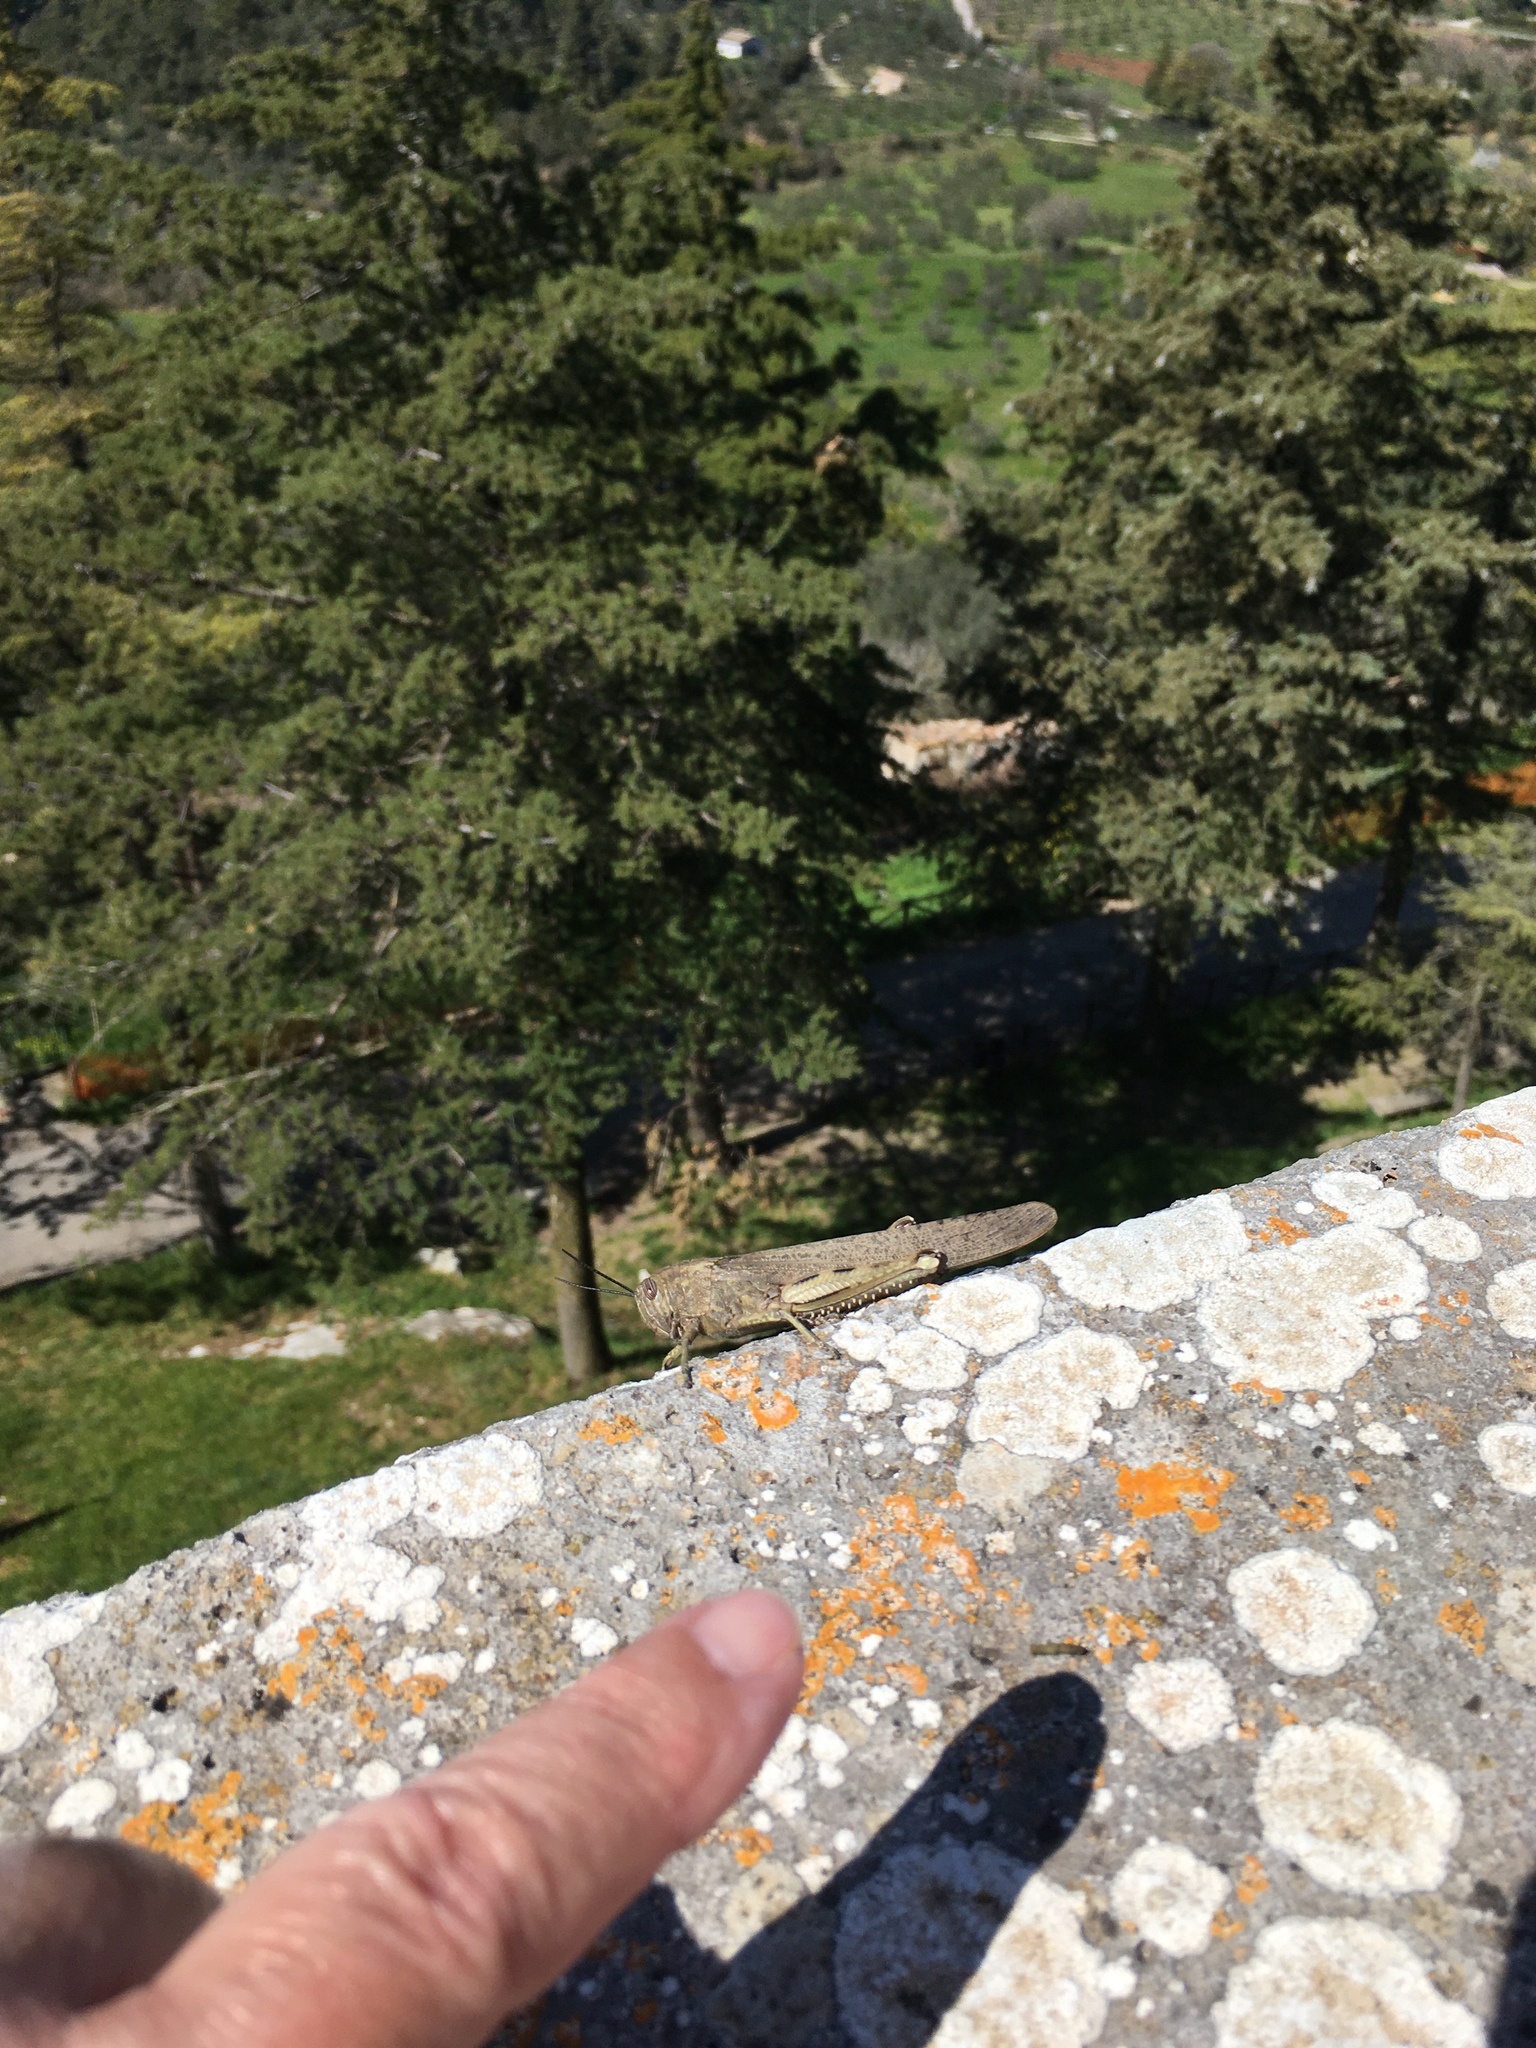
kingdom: Animalia
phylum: Arthropoda
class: Insecta
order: Orthoptera
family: Acrididae
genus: Anacridium
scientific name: Anacridium aegyptium
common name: Egyptian grasshopper
